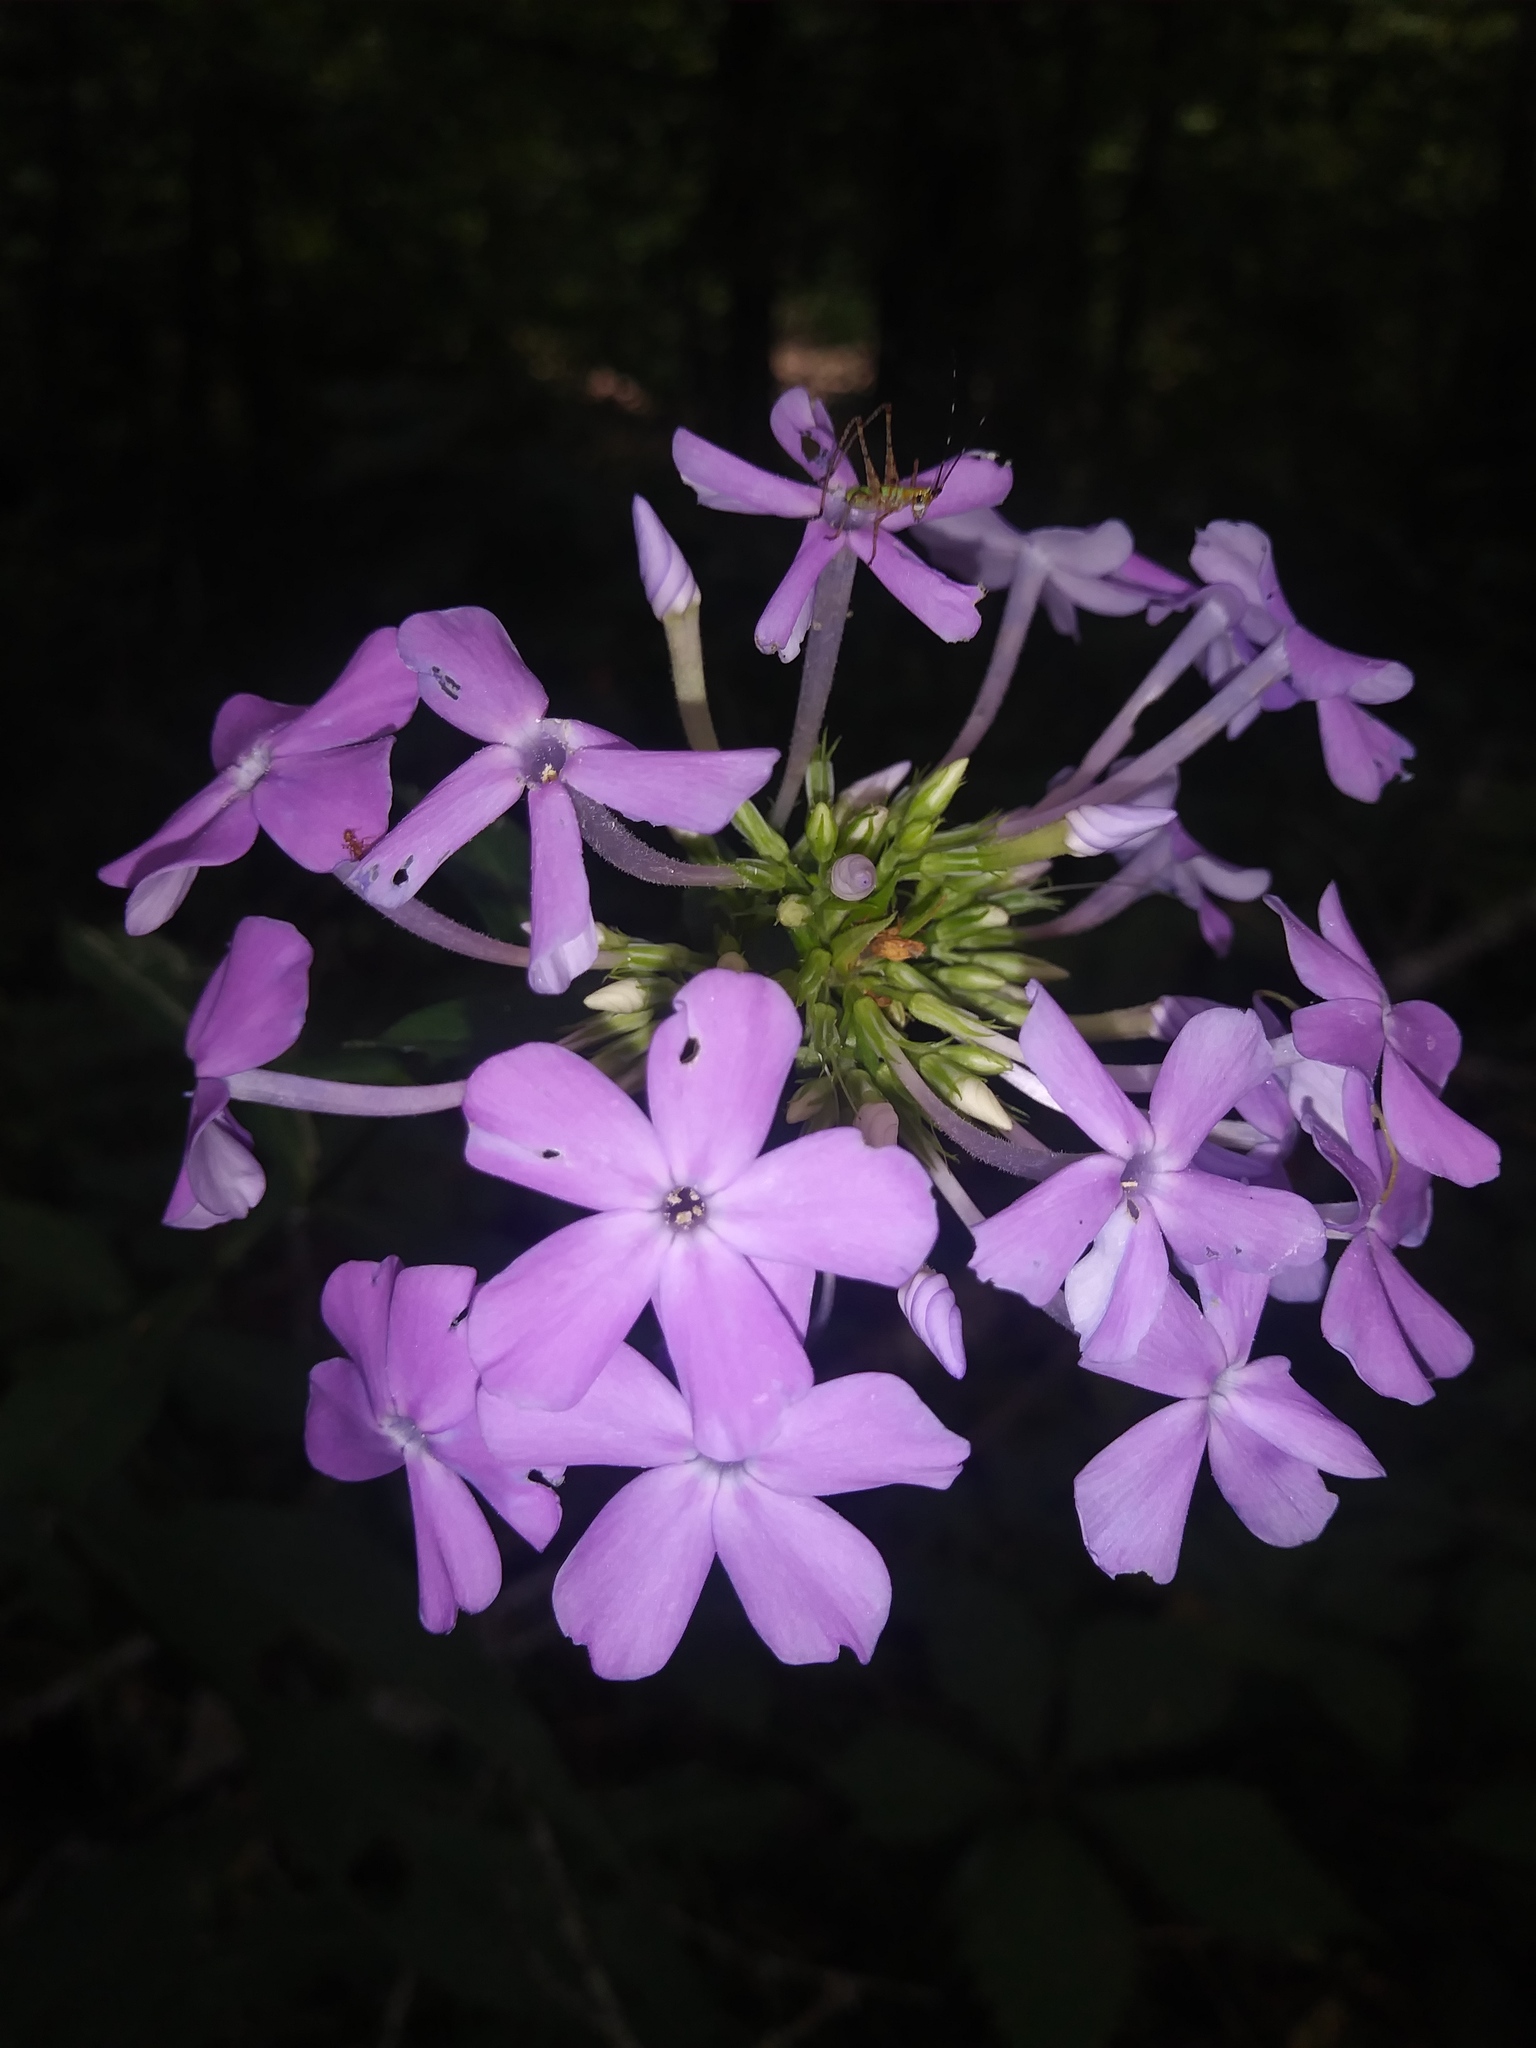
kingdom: Plantae
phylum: Tracheophyta
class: Magnoliopsida
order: Ericales
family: Polemoniaceae
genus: Phlox
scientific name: Phlox paniculata
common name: Fall phlox
